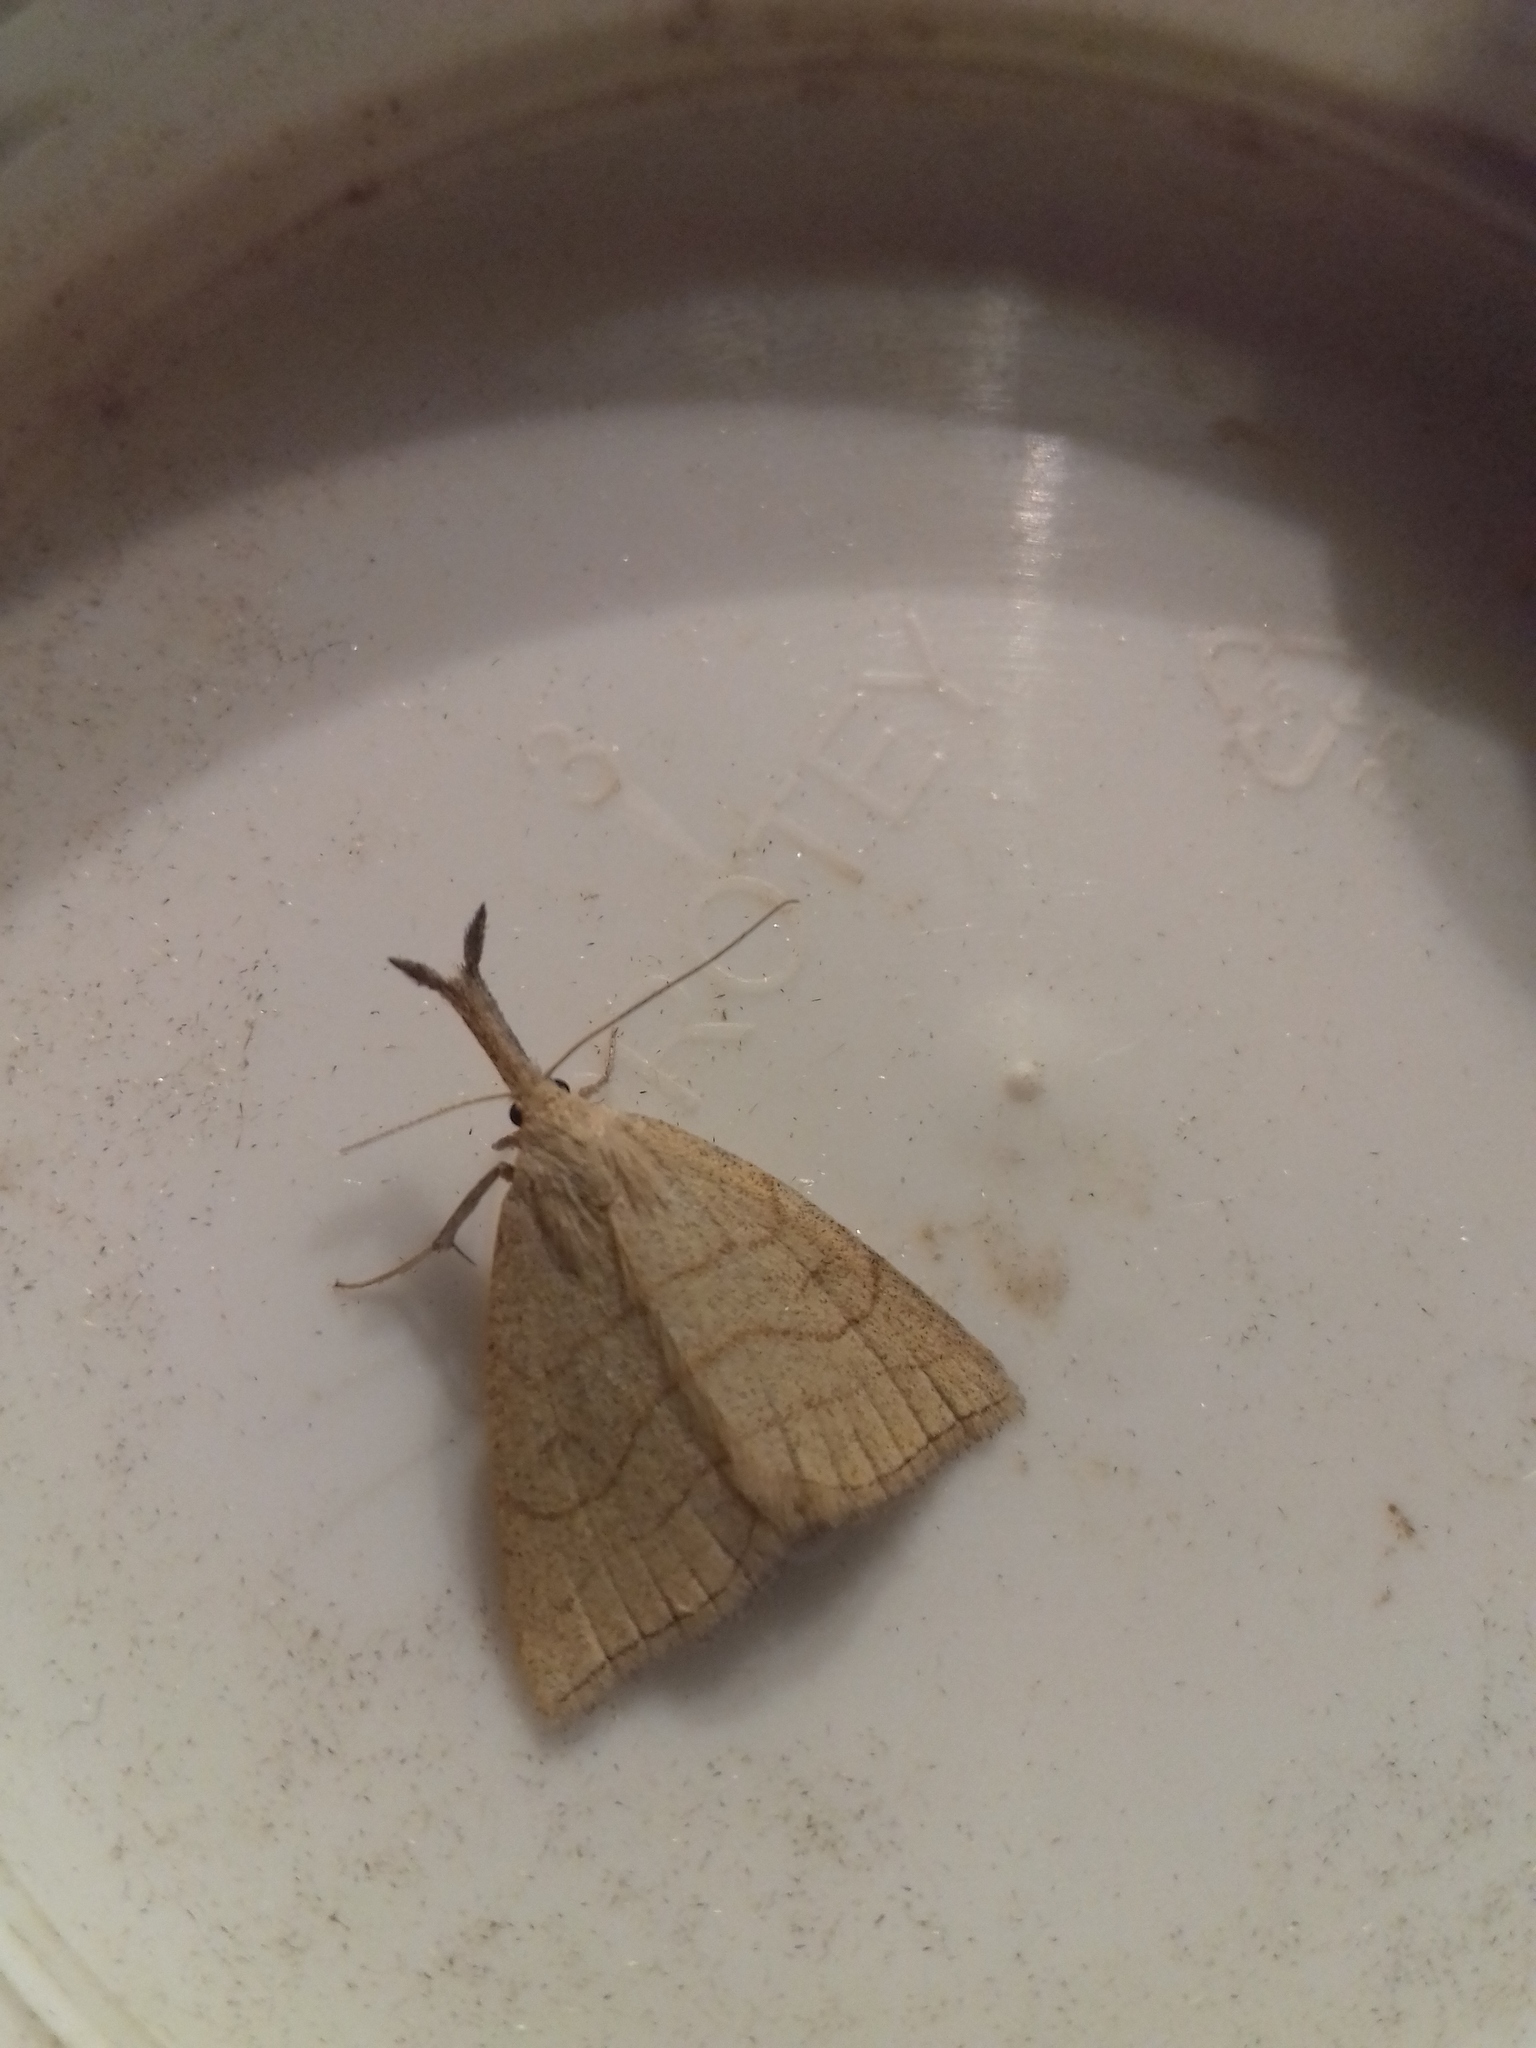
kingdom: Animalia
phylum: Arthropoda
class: Insecta
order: Lepidoptera
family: Erebidae
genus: Polypogon
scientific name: Polypogon tentacularia
